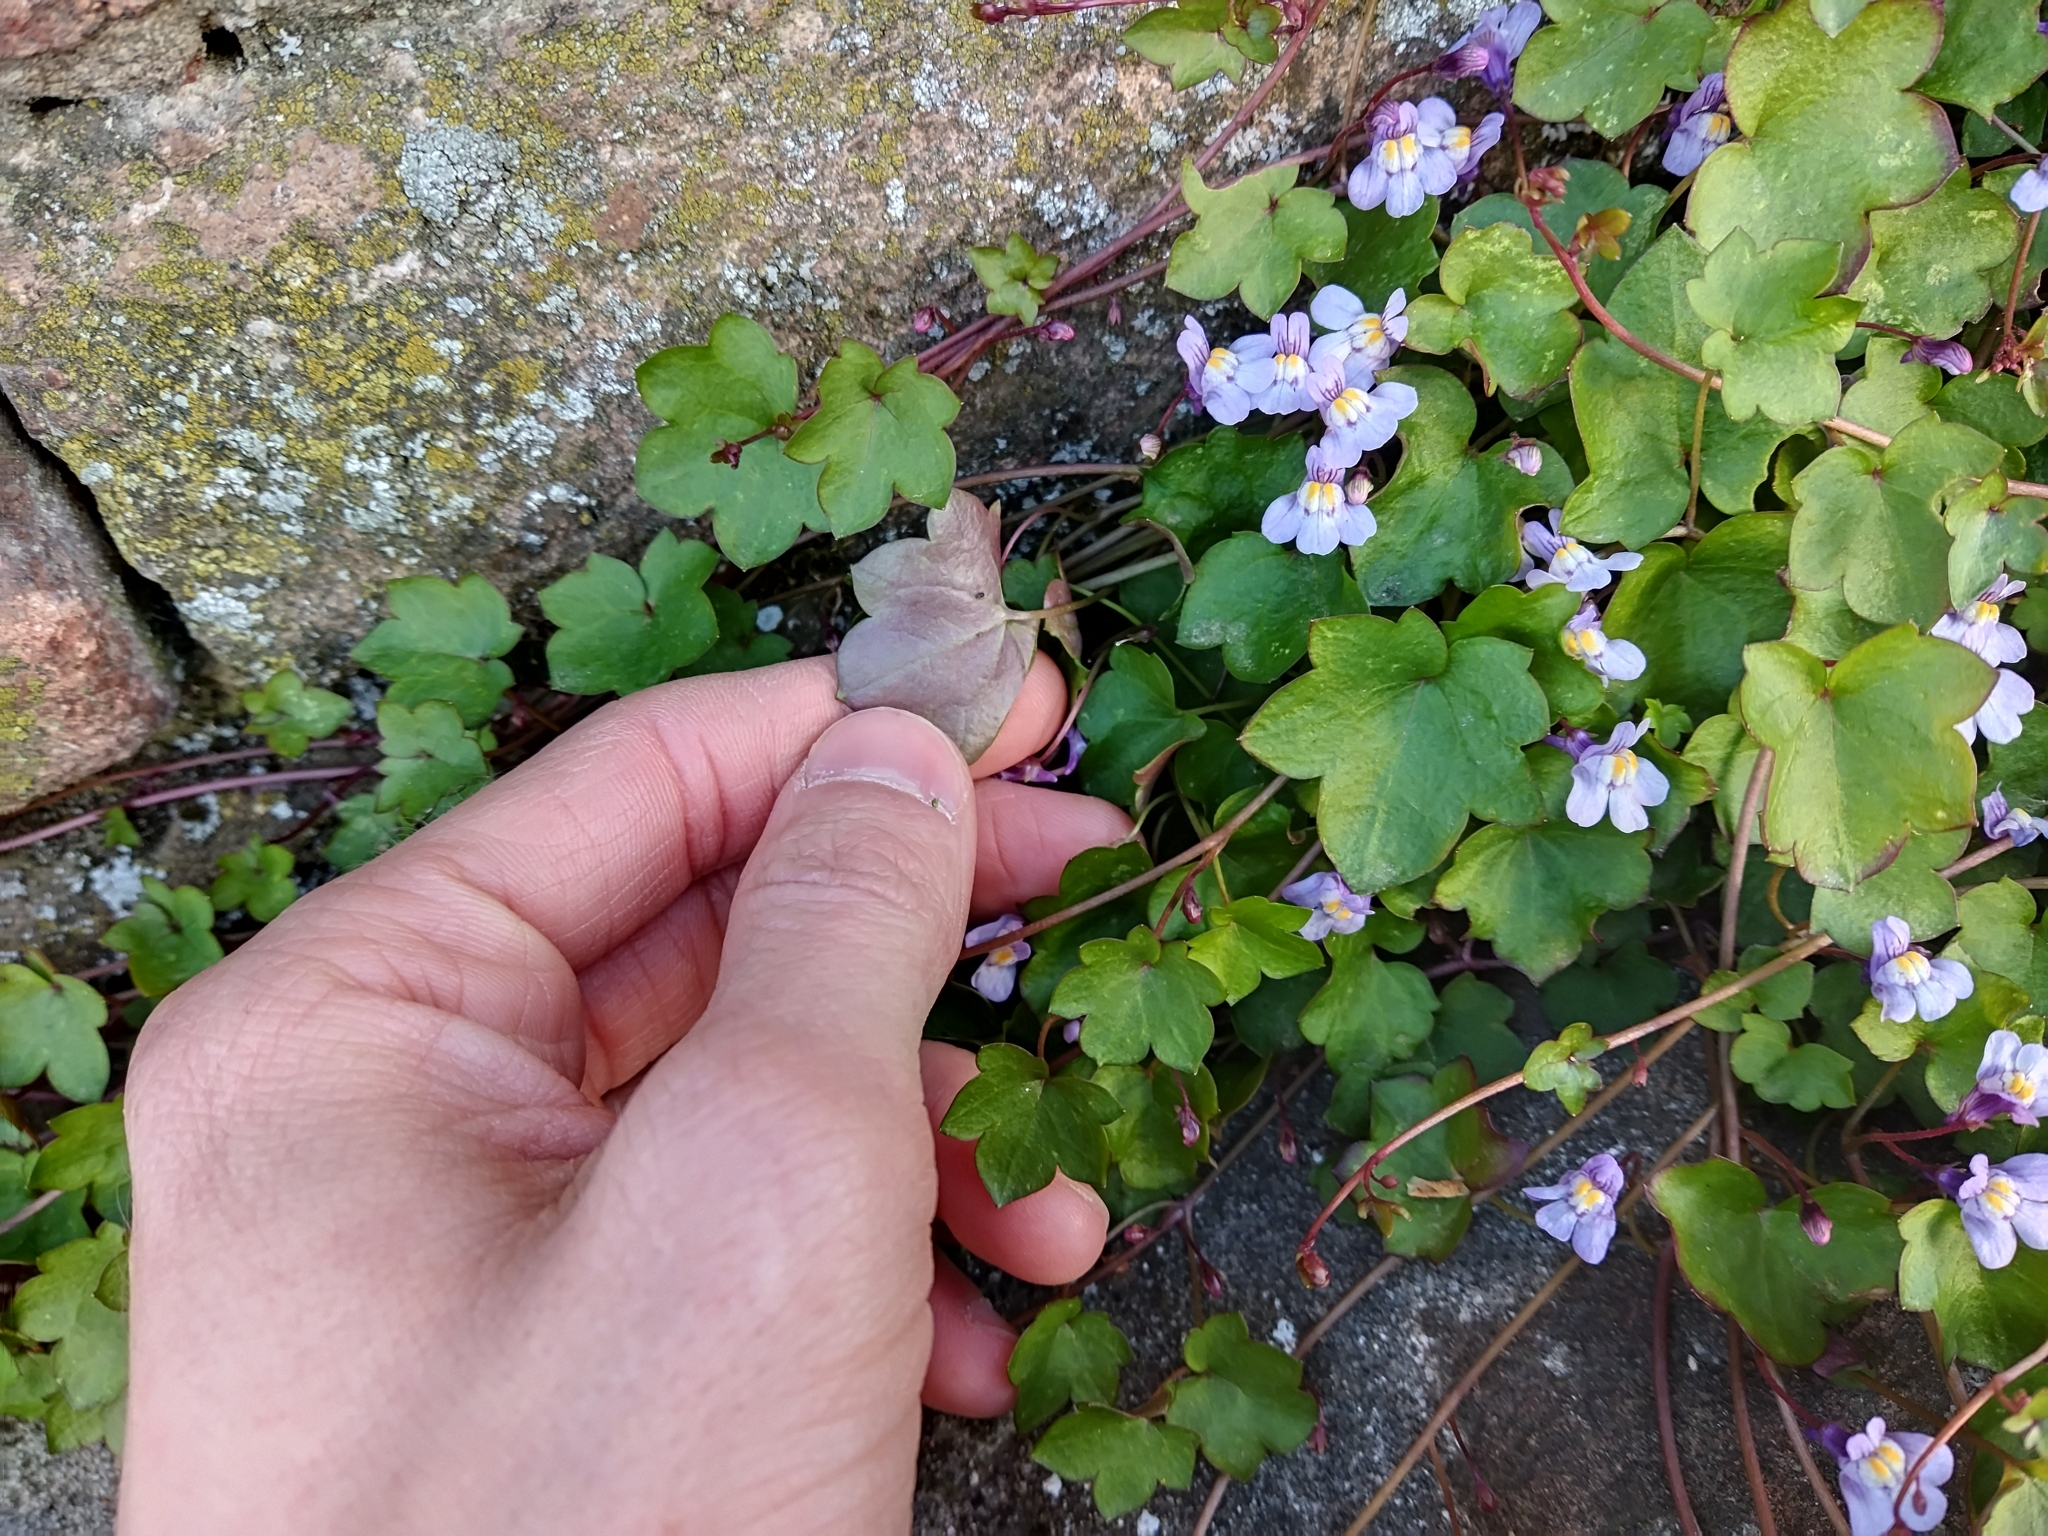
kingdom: Plantae
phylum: Tracheophyta
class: Magnoliopsida
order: Lamiales
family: Plantaginaceae
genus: Cymbalaria
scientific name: Cymbalaria muralis
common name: Ivy-leaved toadflax
